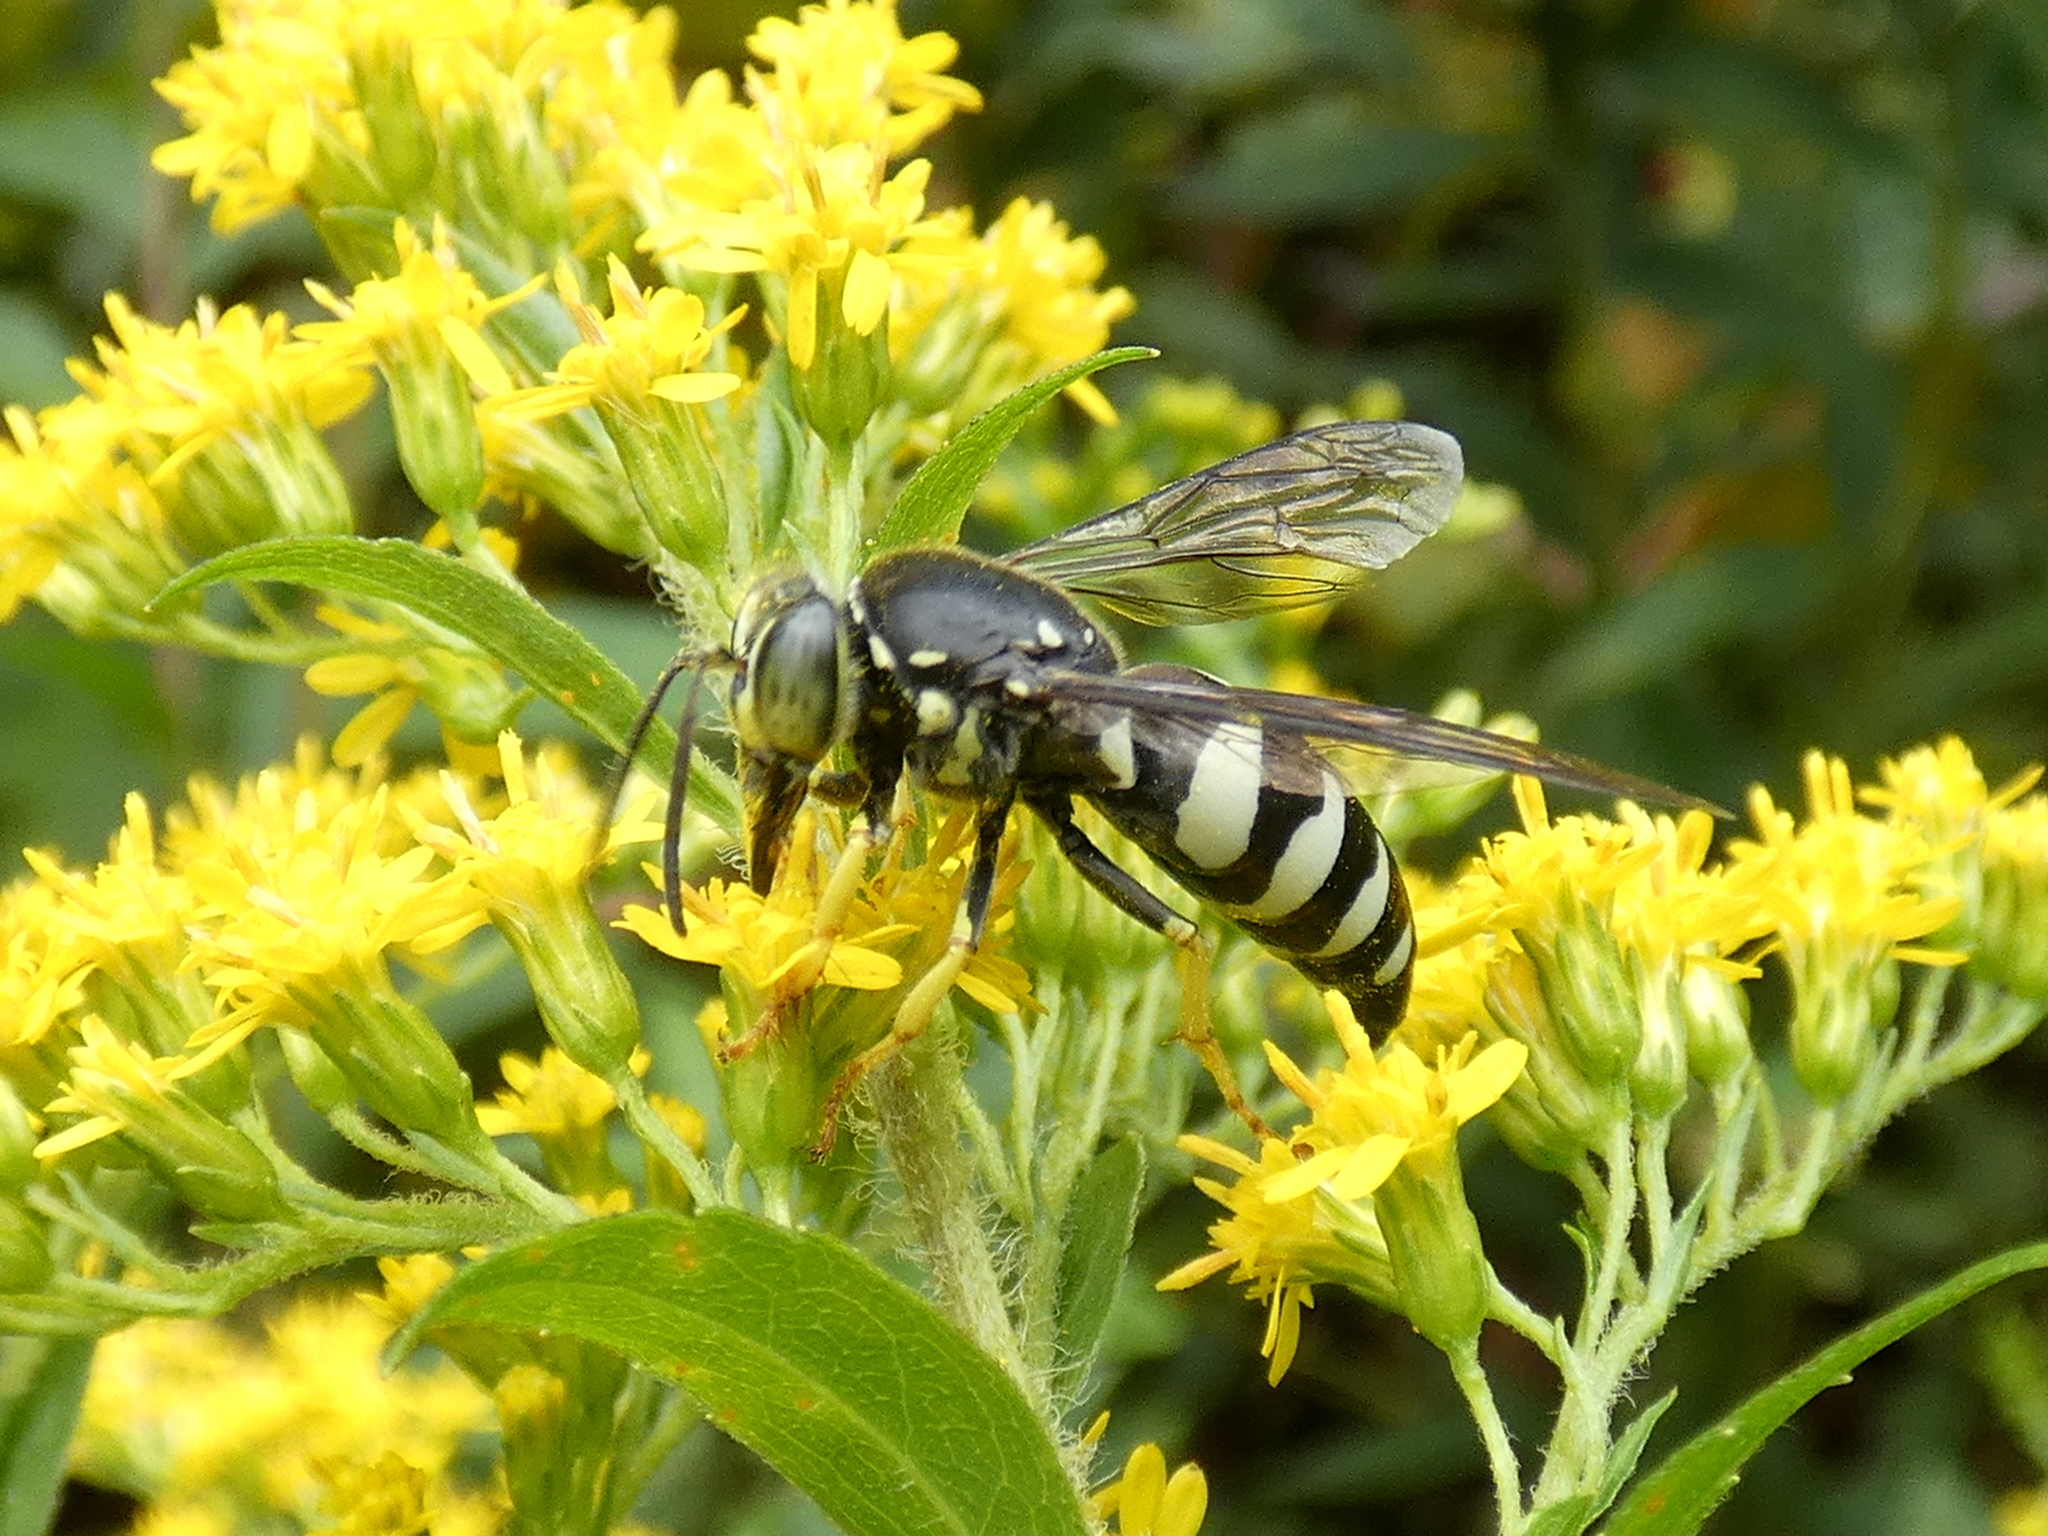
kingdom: Animalia
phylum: Arthropoda
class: Insecta
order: Hymenoptera
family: Crabronidae
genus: Bicyrtes
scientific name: Bicyrtes quadrifasciatus
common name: Four-banded stink bug hunter wasp
